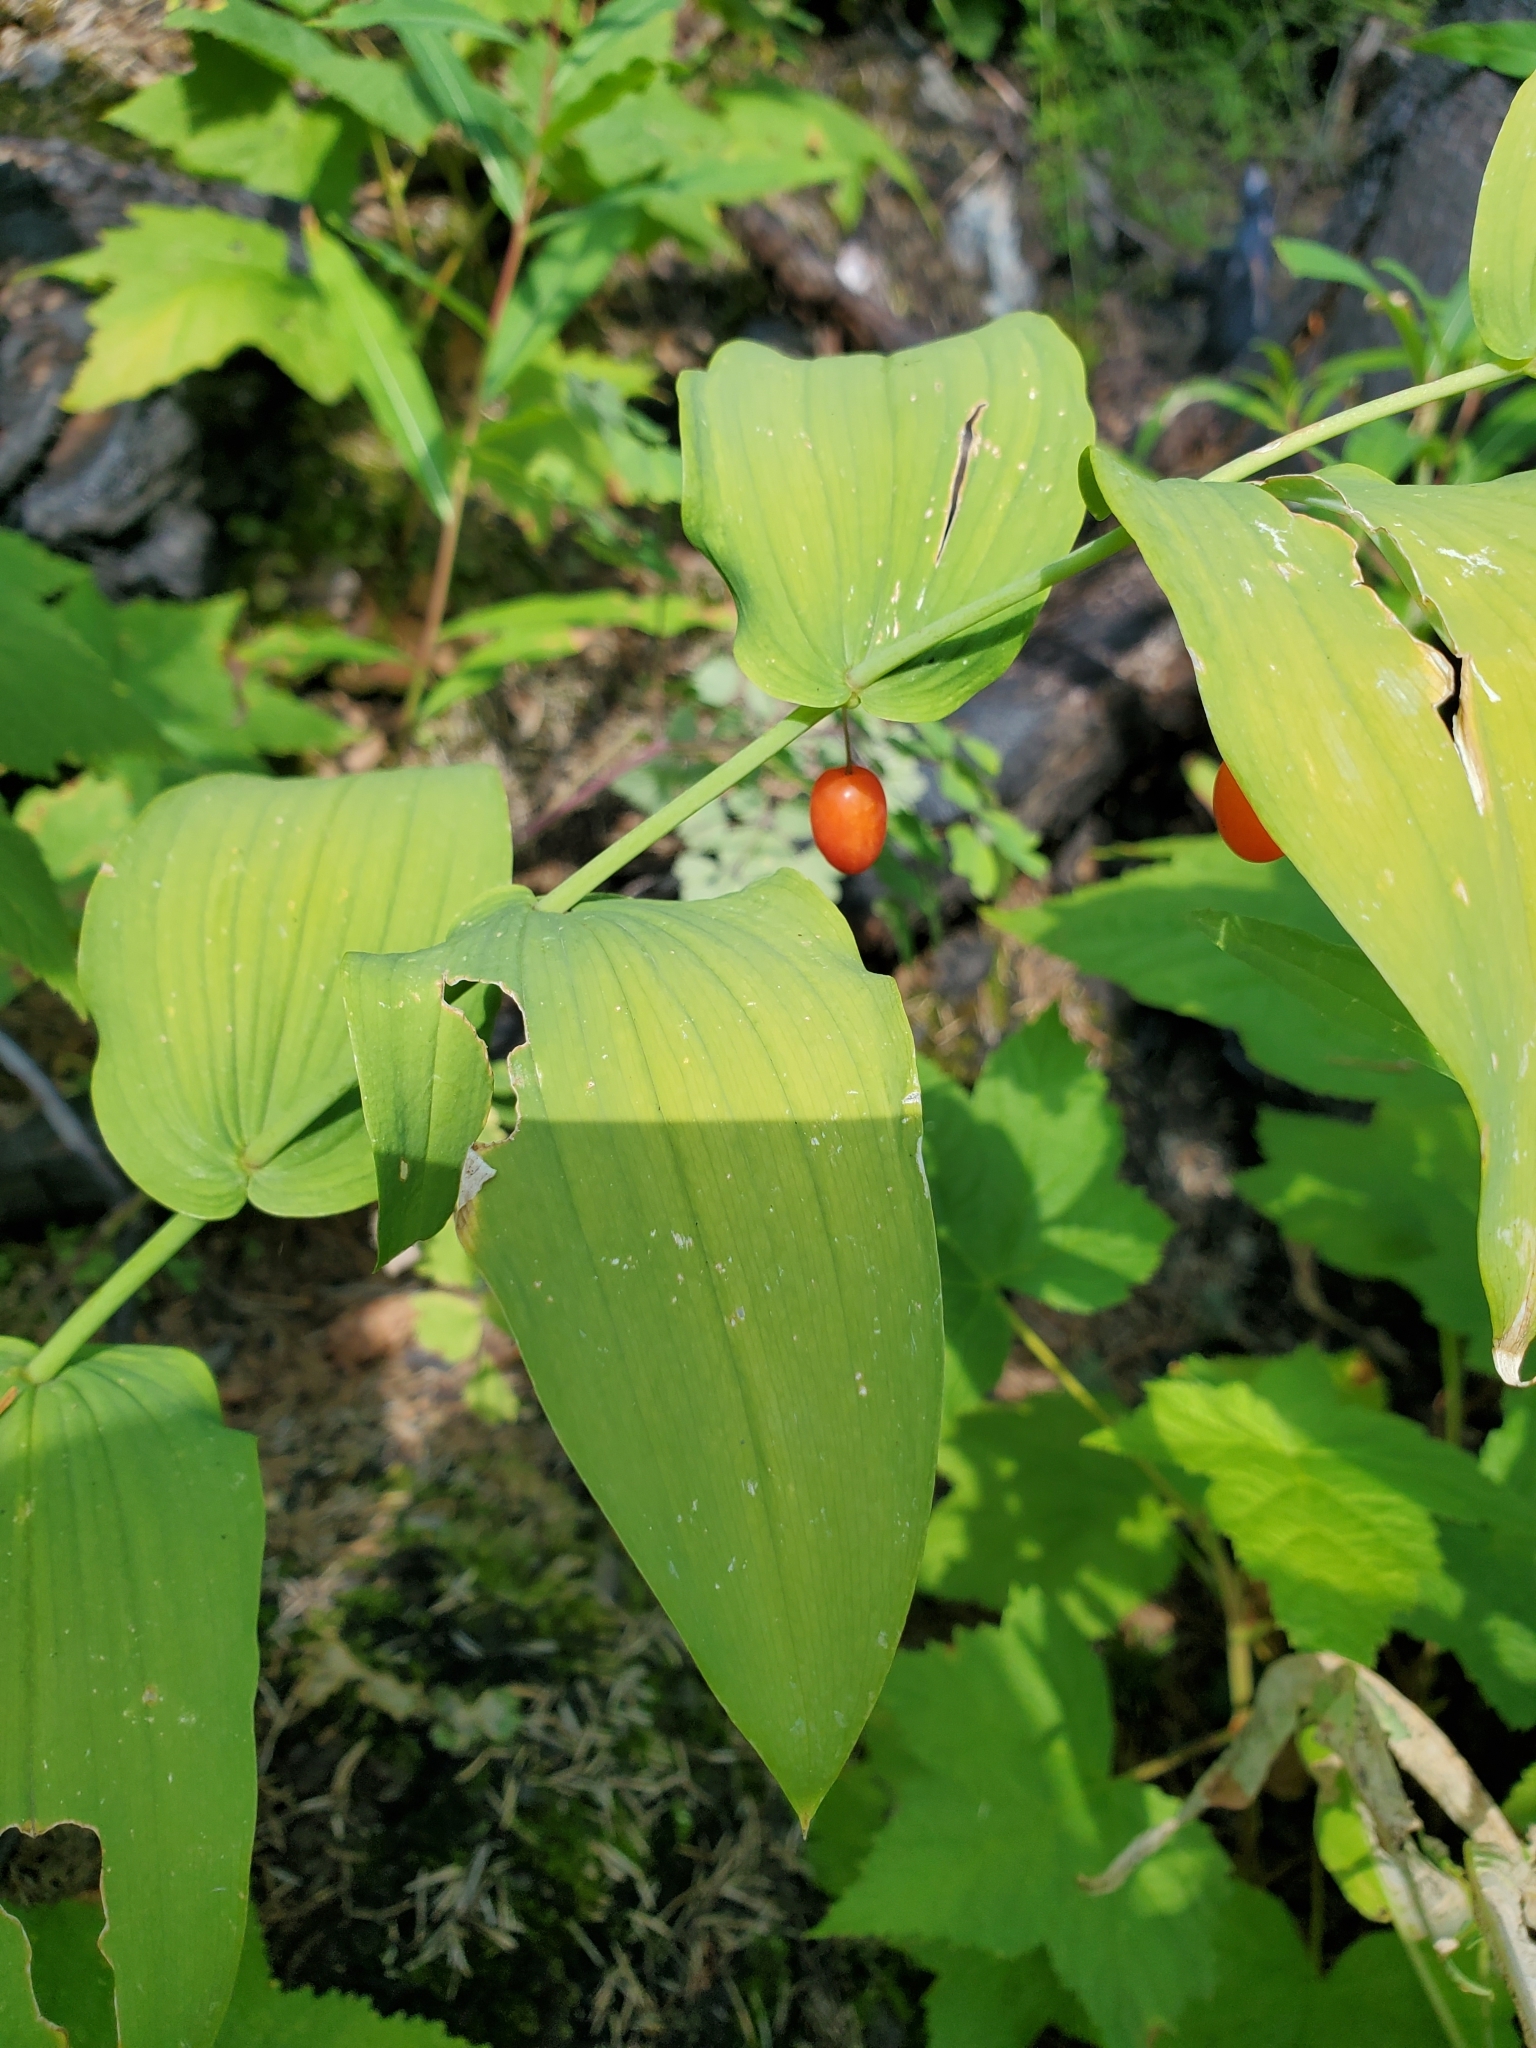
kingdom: Plantae
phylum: Tracheophyta
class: Liliopsida
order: Liliales
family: Liliaceae
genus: Streptopus
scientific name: Streptopus amplexifolius
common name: Clasp twisted stalk
